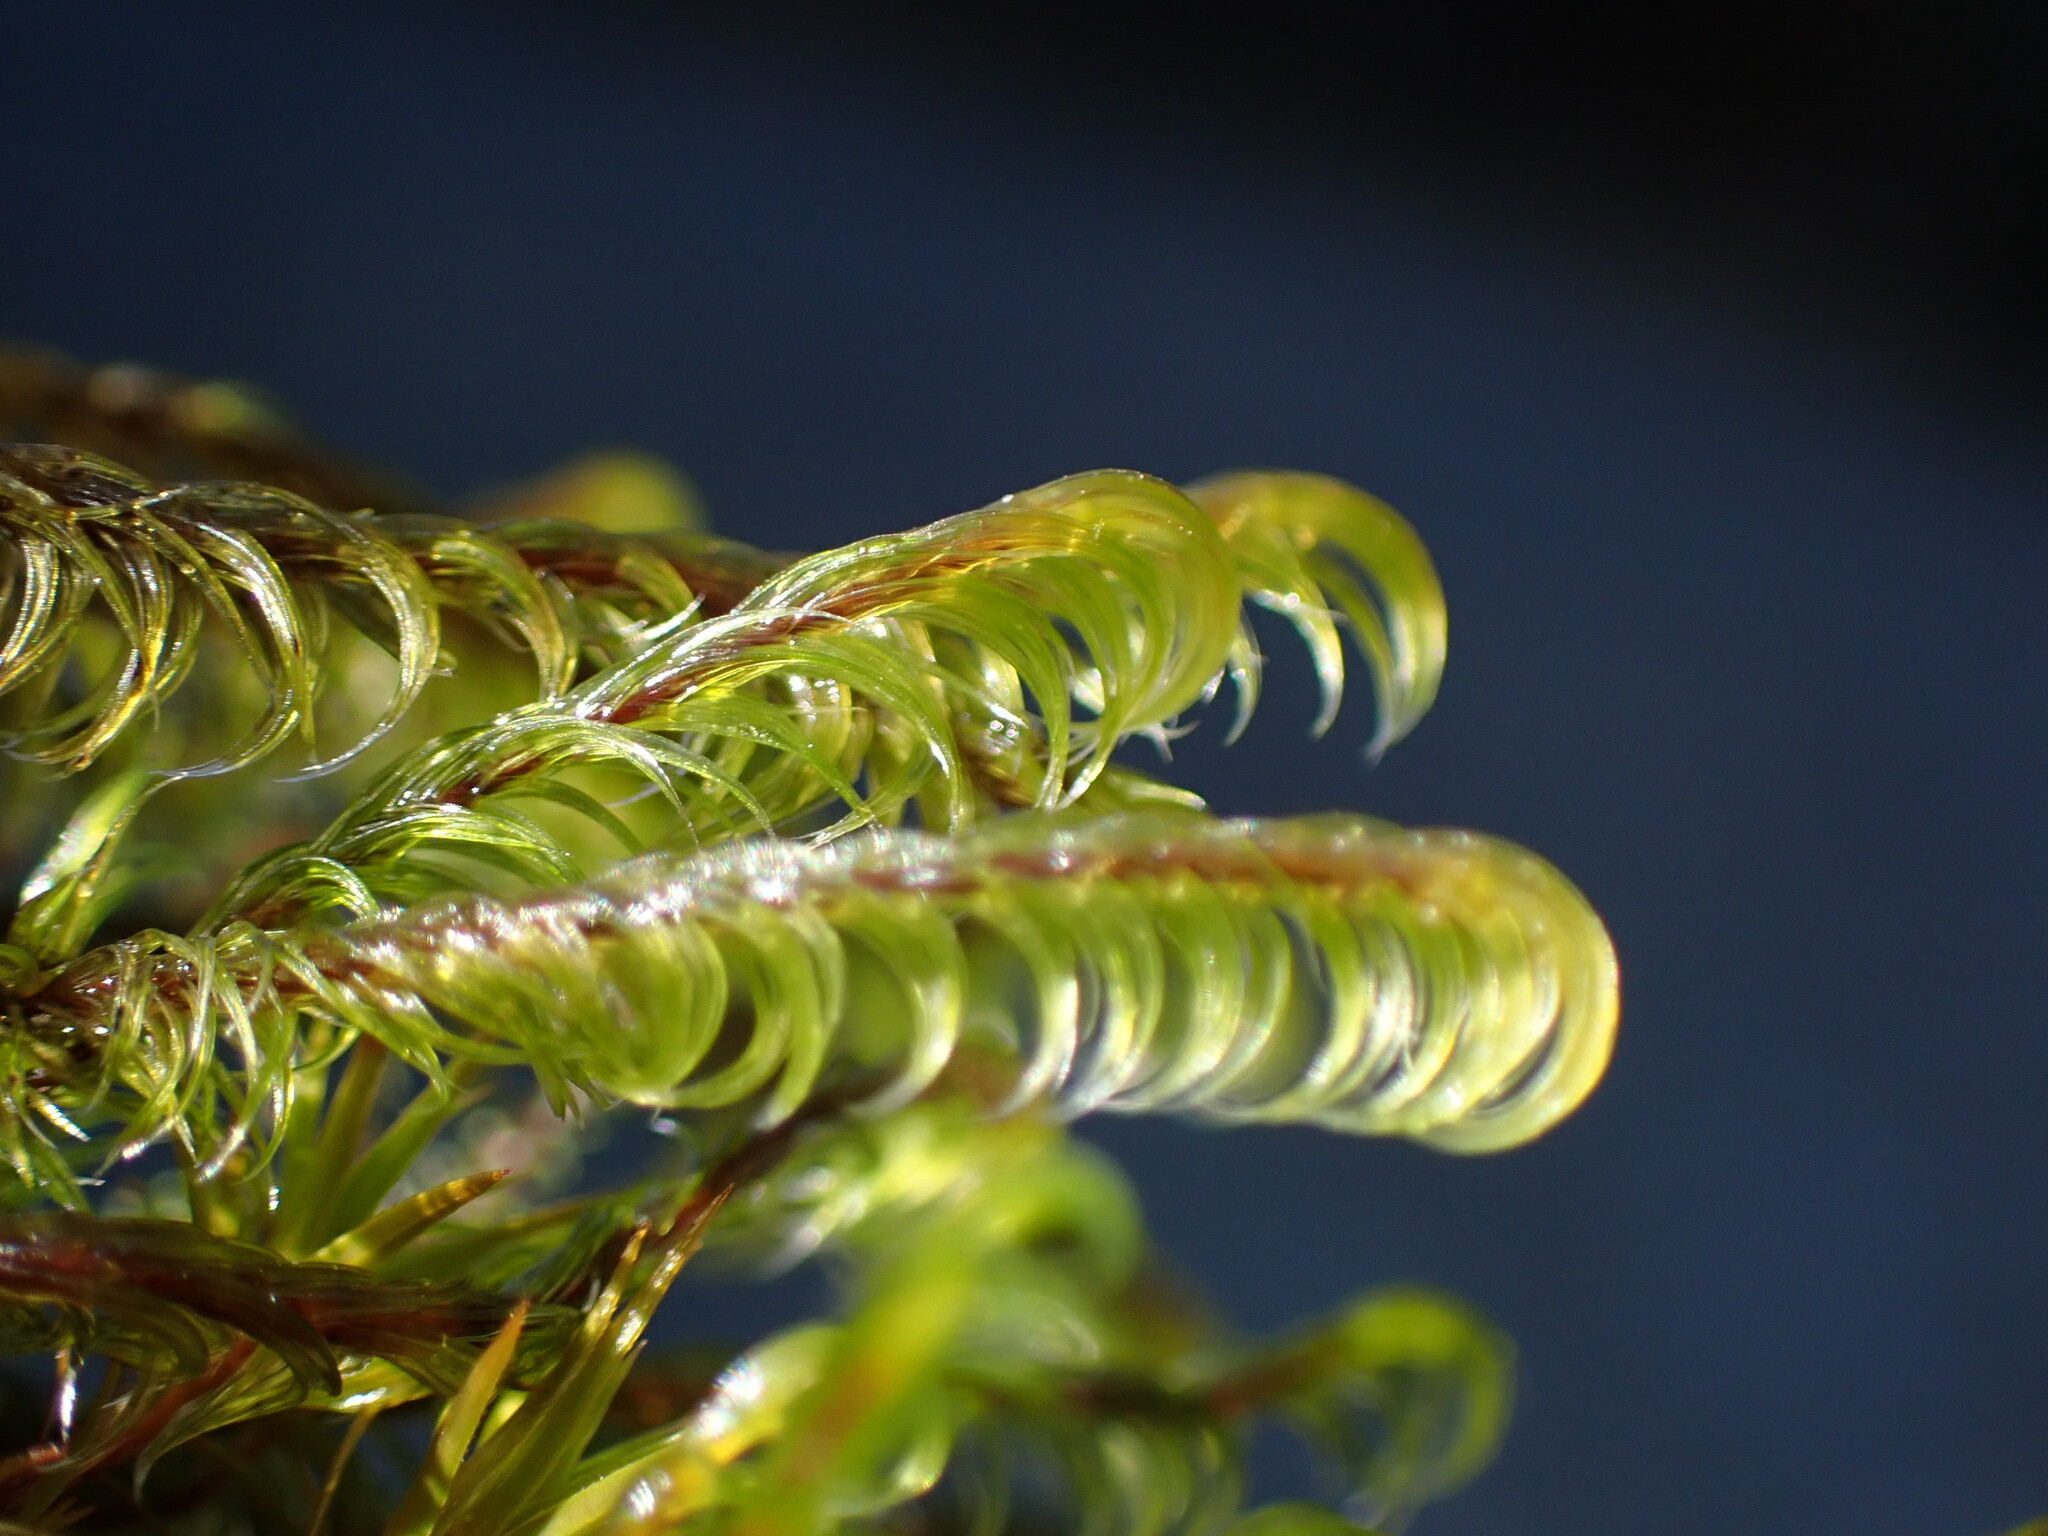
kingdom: Plantae
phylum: Bryophyta
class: Bryopsida
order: Grimmiales
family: Grimmiaceae
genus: Bucklandiella
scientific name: Bucklandiella lawtonae
